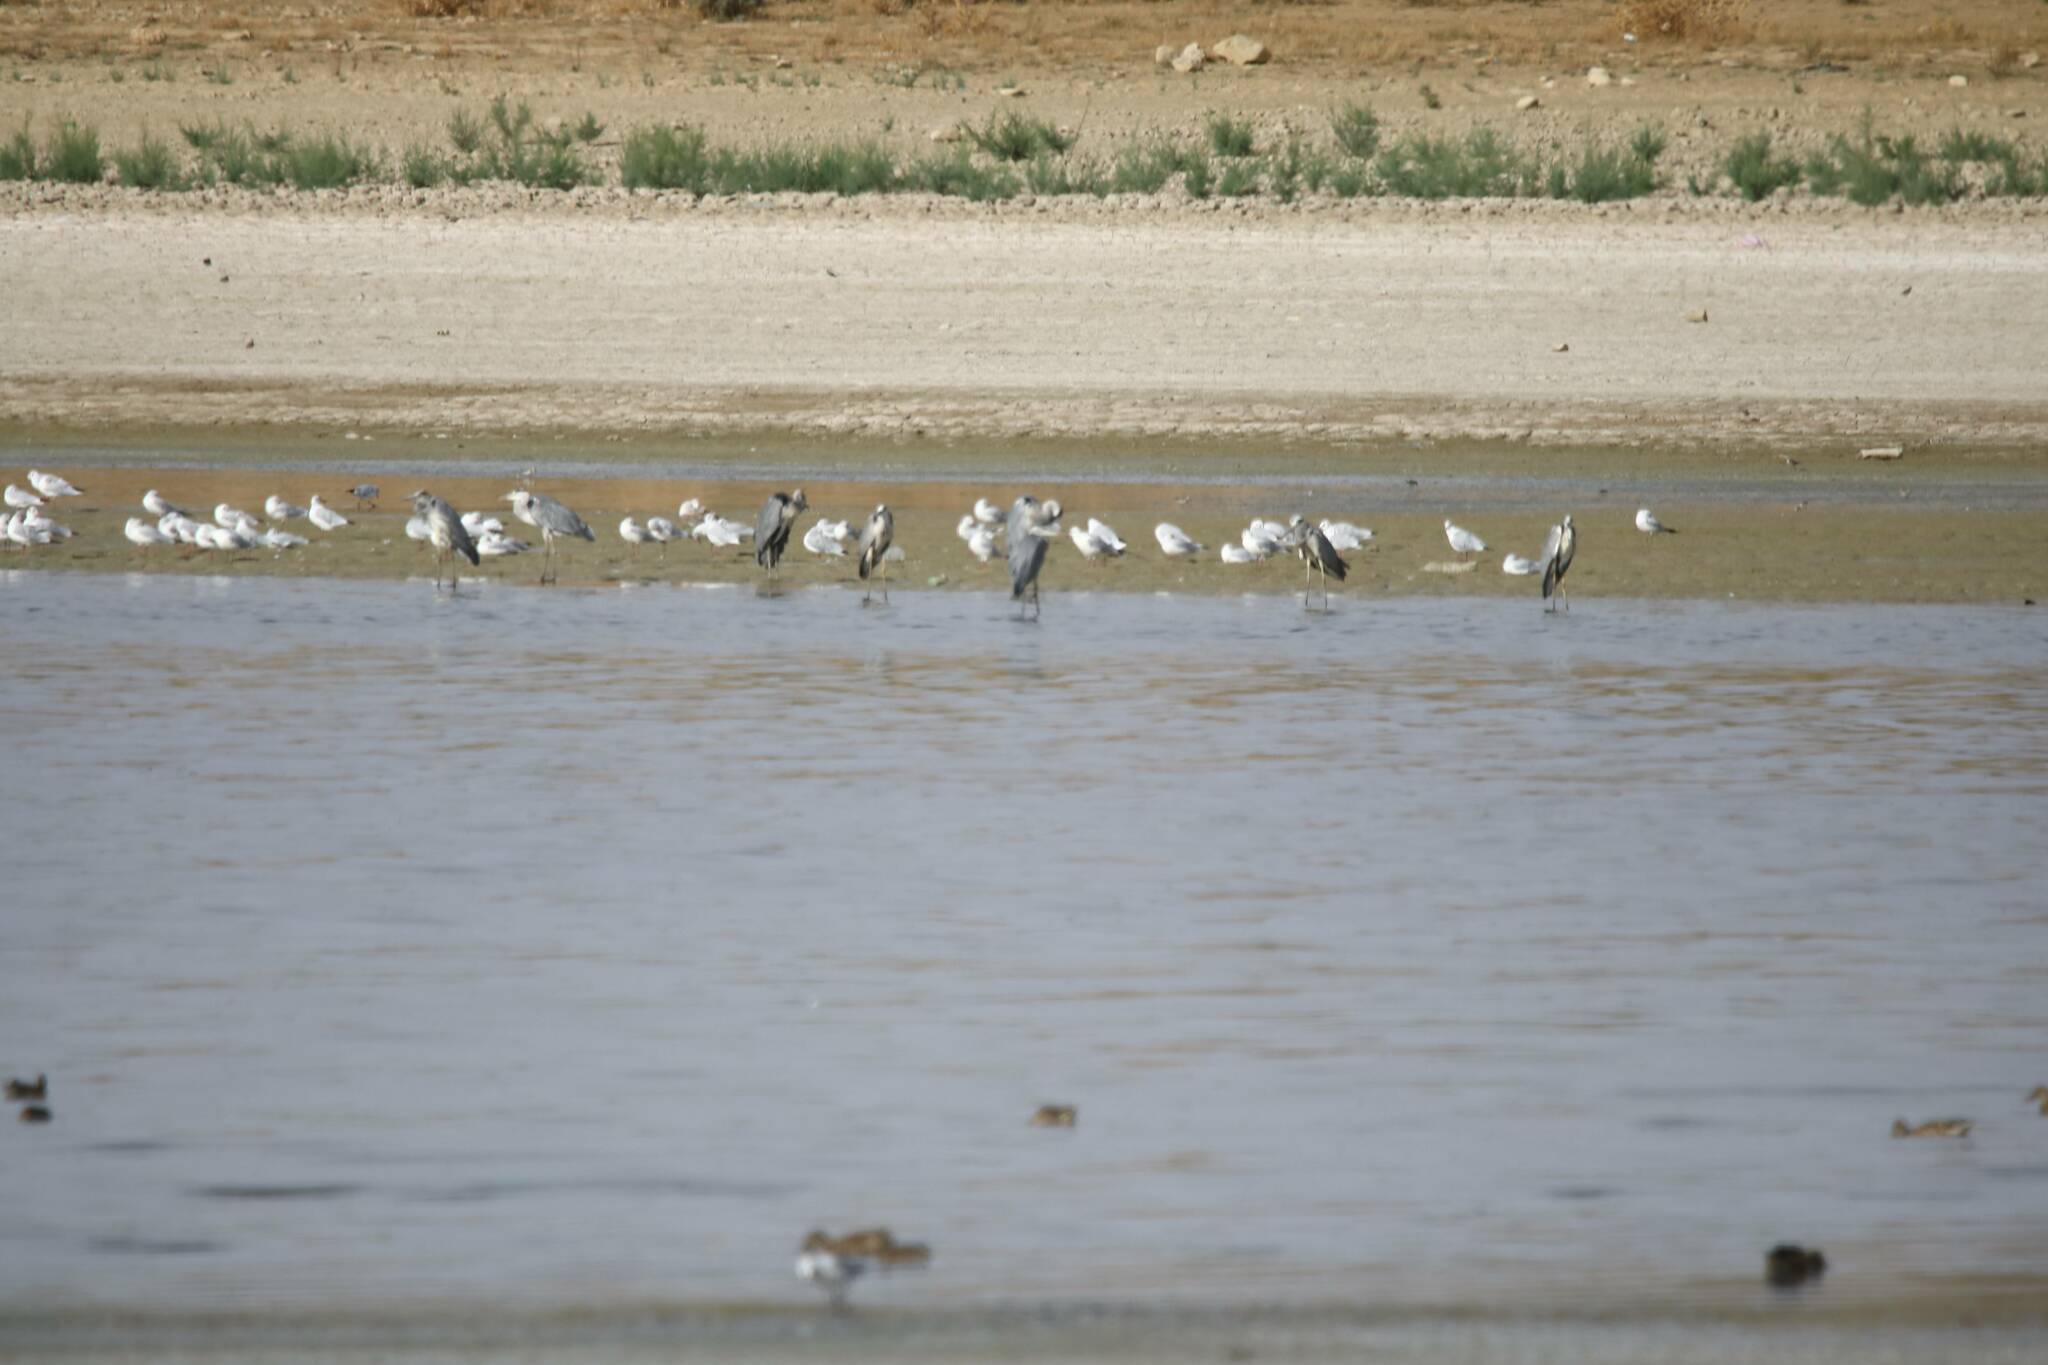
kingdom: Animalia
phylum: Chordata
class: Aves
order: Pelecaniformes
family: Ardeidae
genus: Ardea
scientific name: Ardea cinerea
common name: Grey heron
